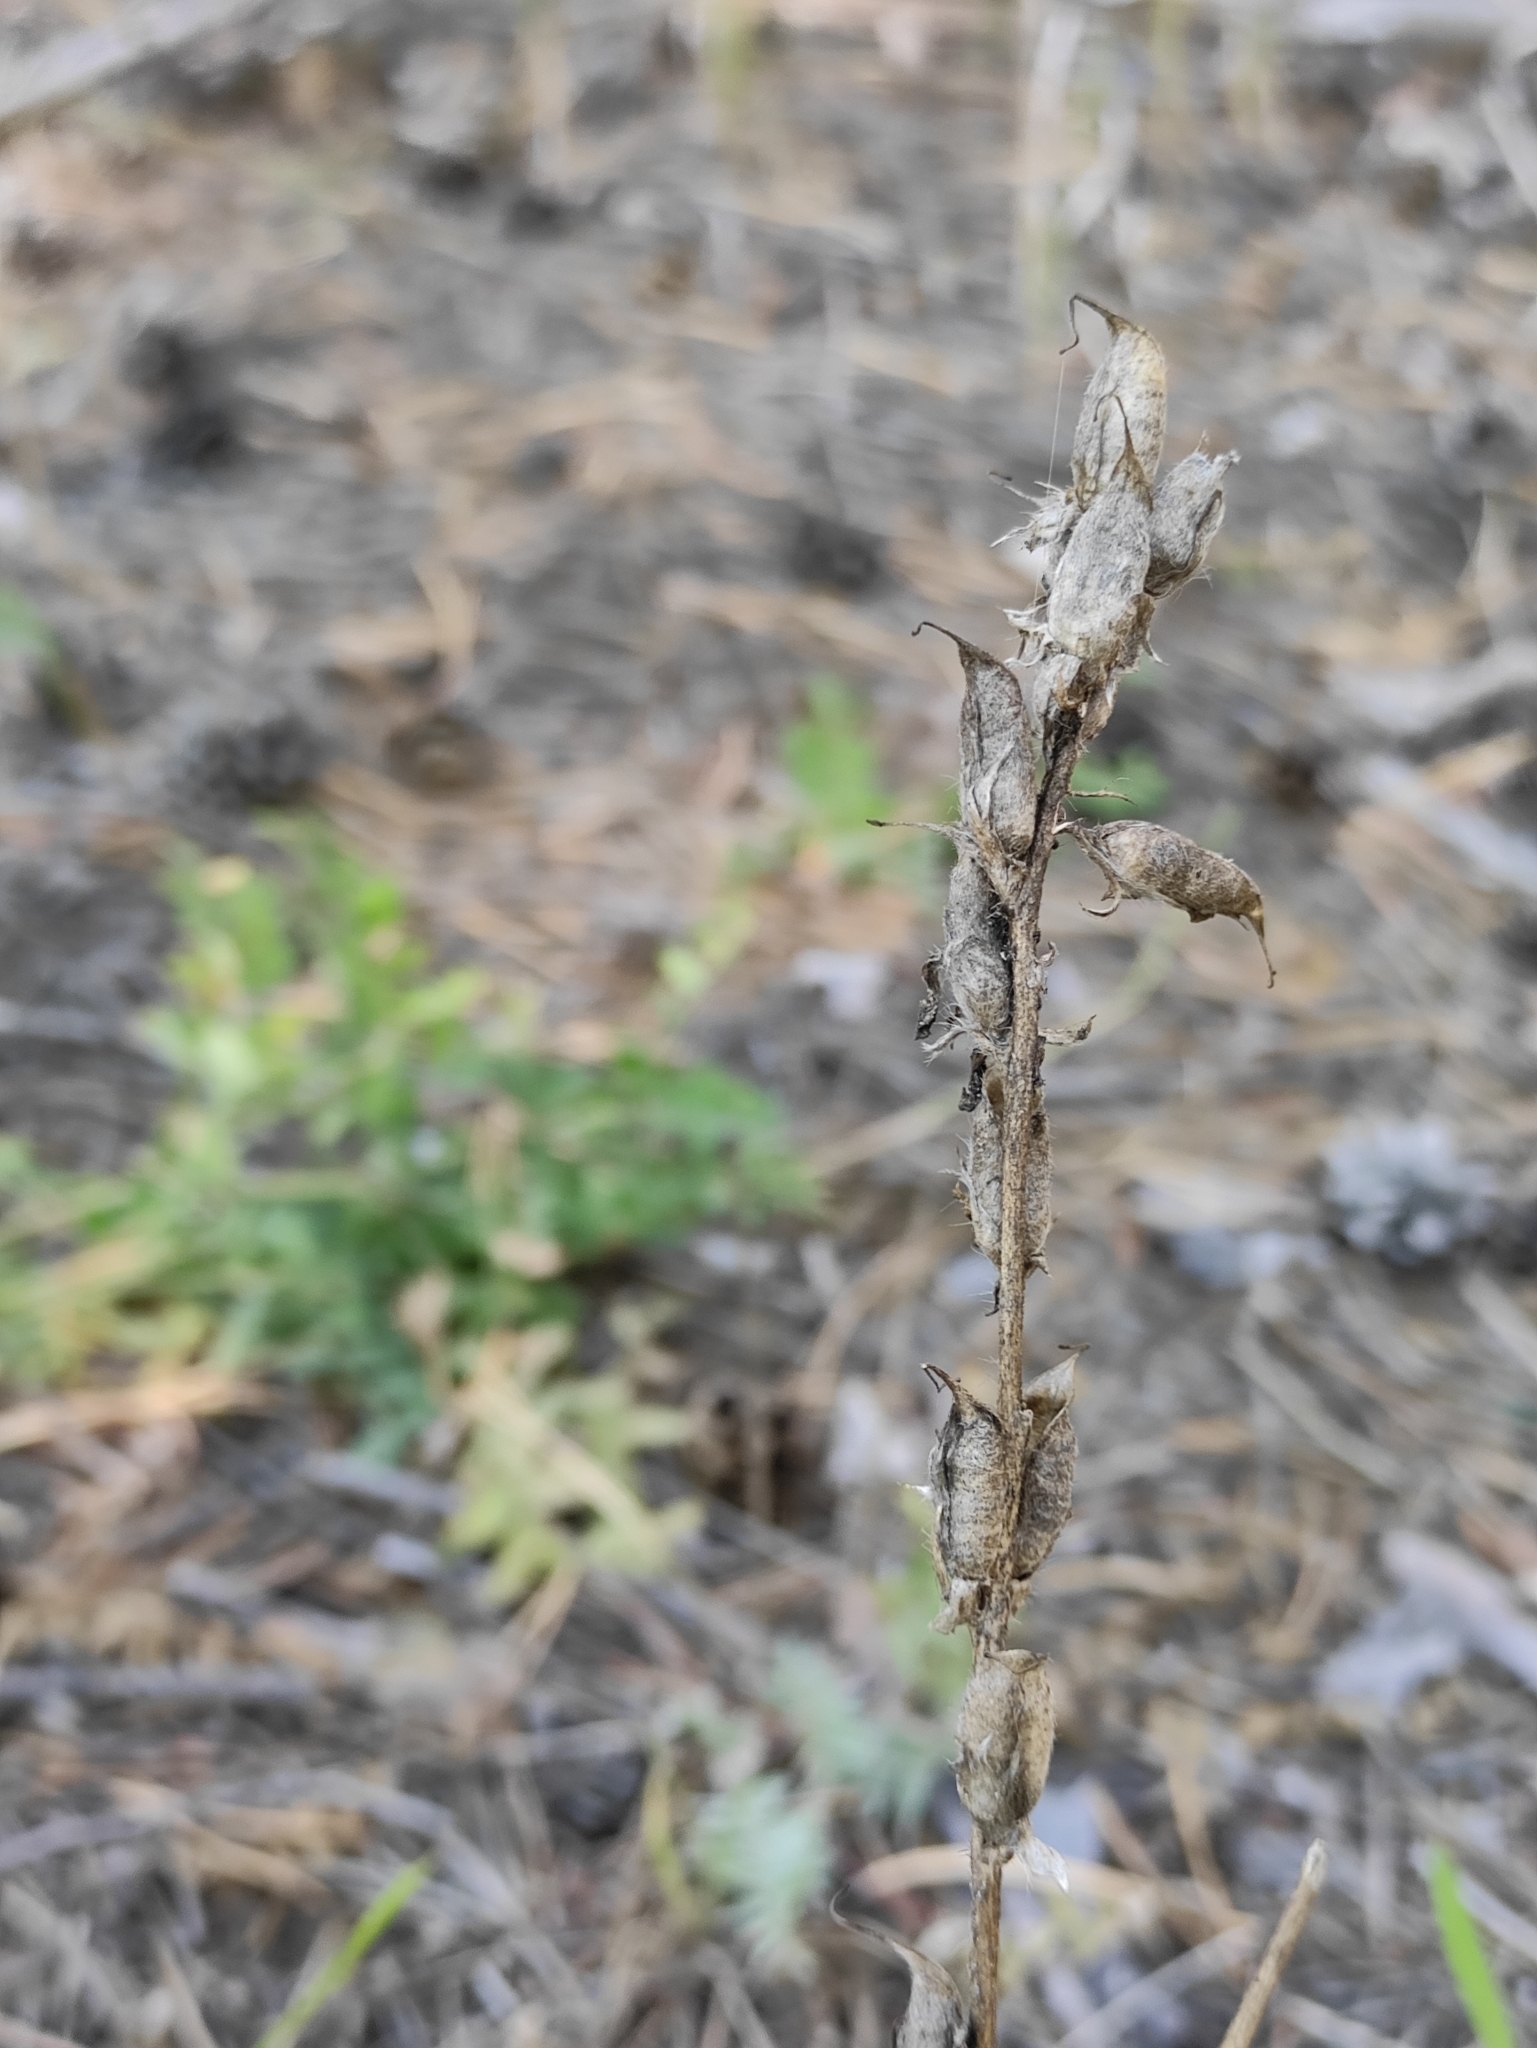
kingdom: Plantae
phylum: Tracheophyta
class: Magnoliopsida
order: Fabales
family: Fabaceae
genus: Oxytropis
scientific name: Oxytropis strobilacea
